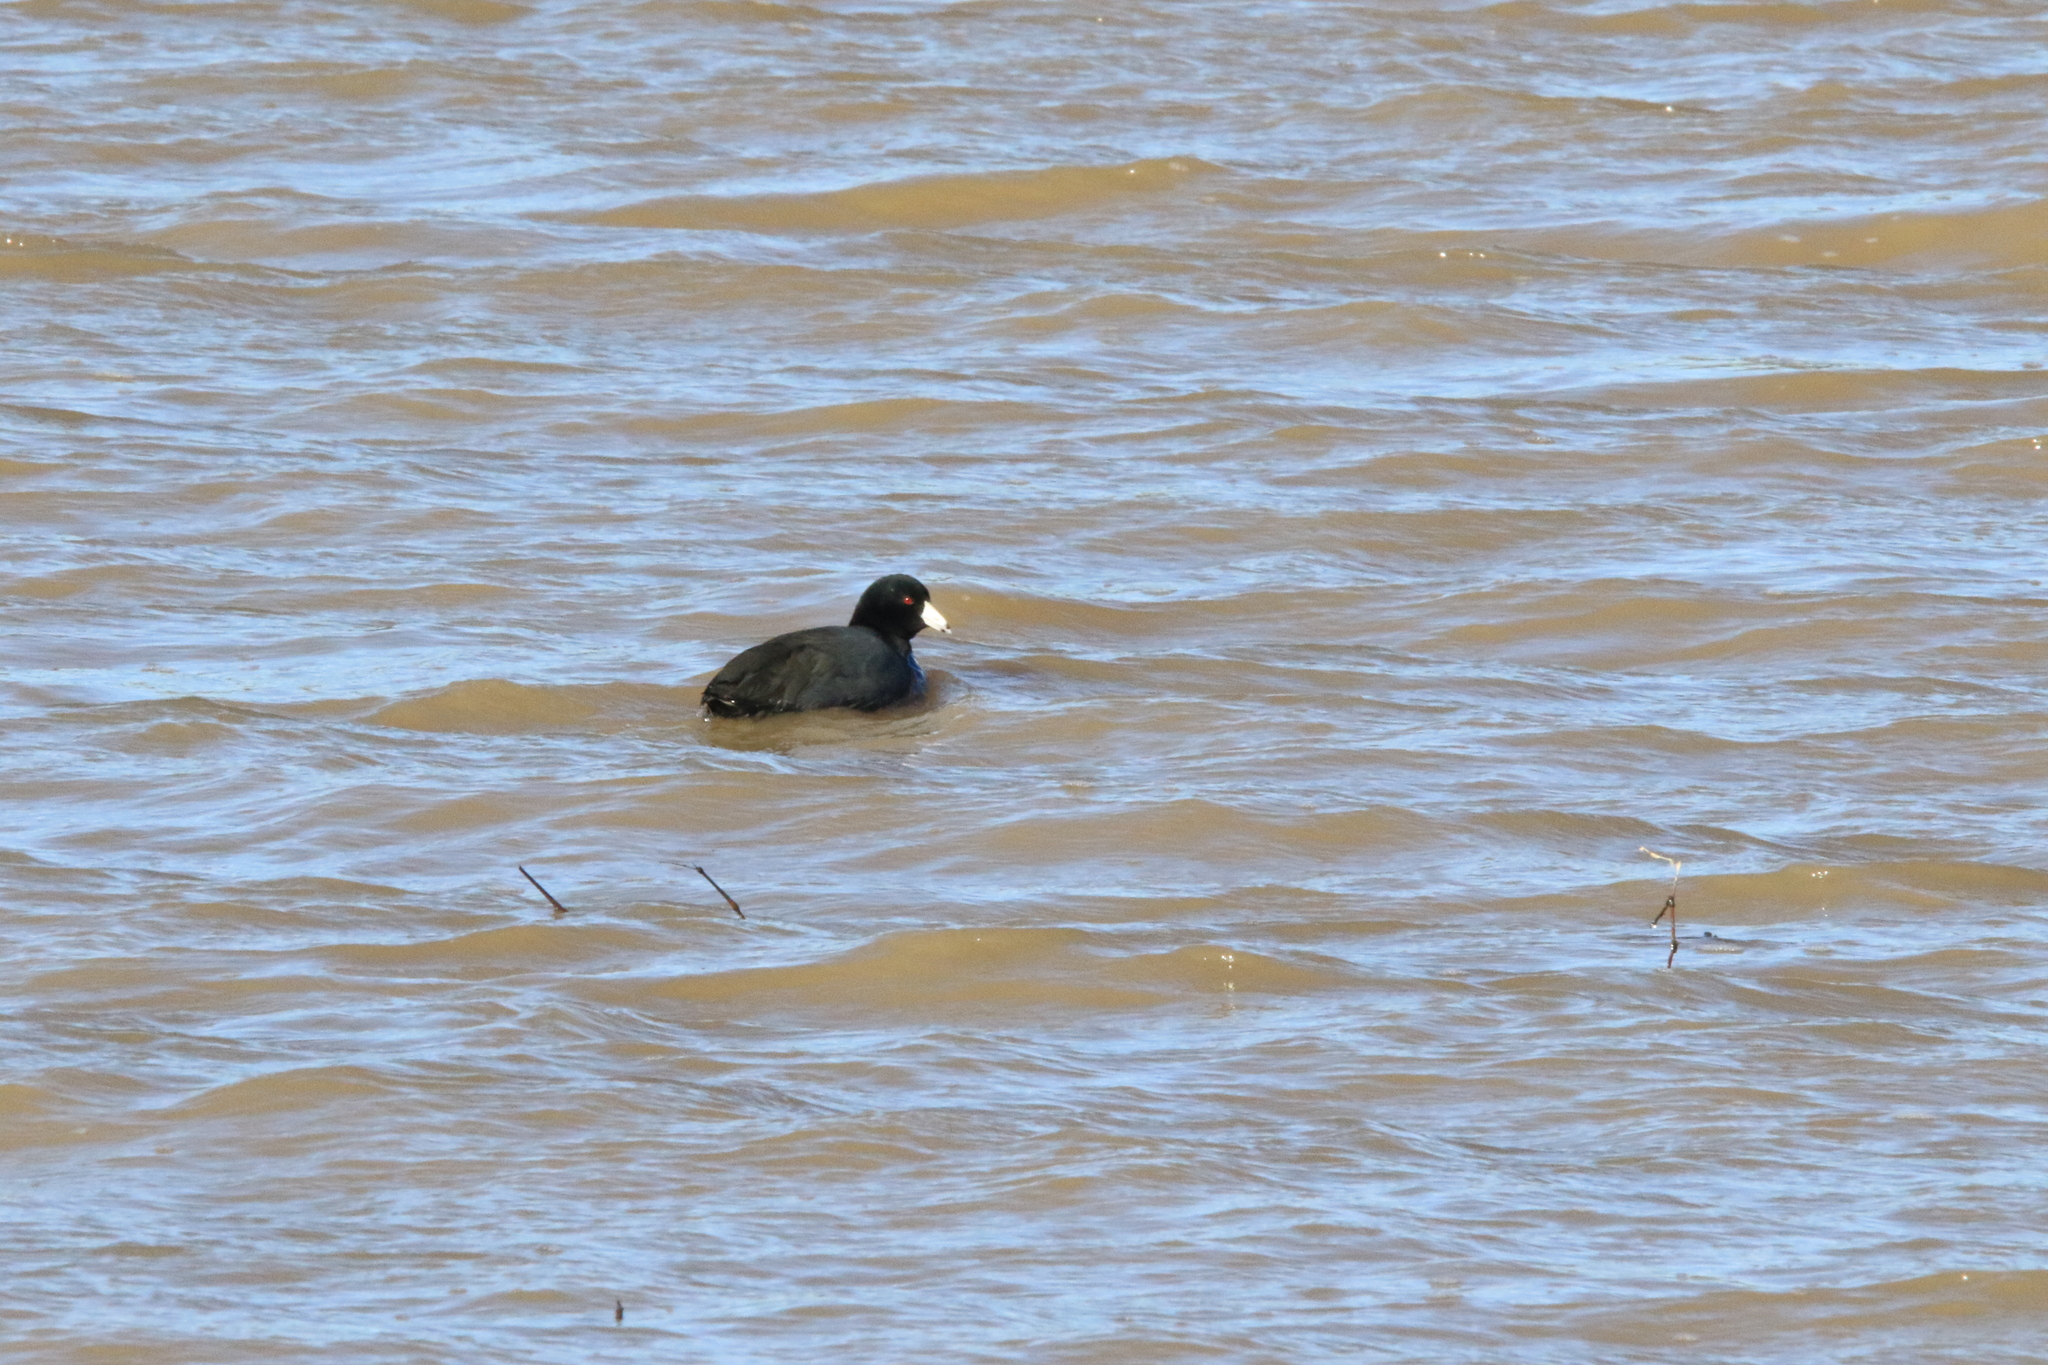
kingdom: Animalia
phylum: Chordata
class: Aves
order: Gruiformes
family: Rallidae
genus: Fulica
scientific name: Fulica americana
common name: American coot
